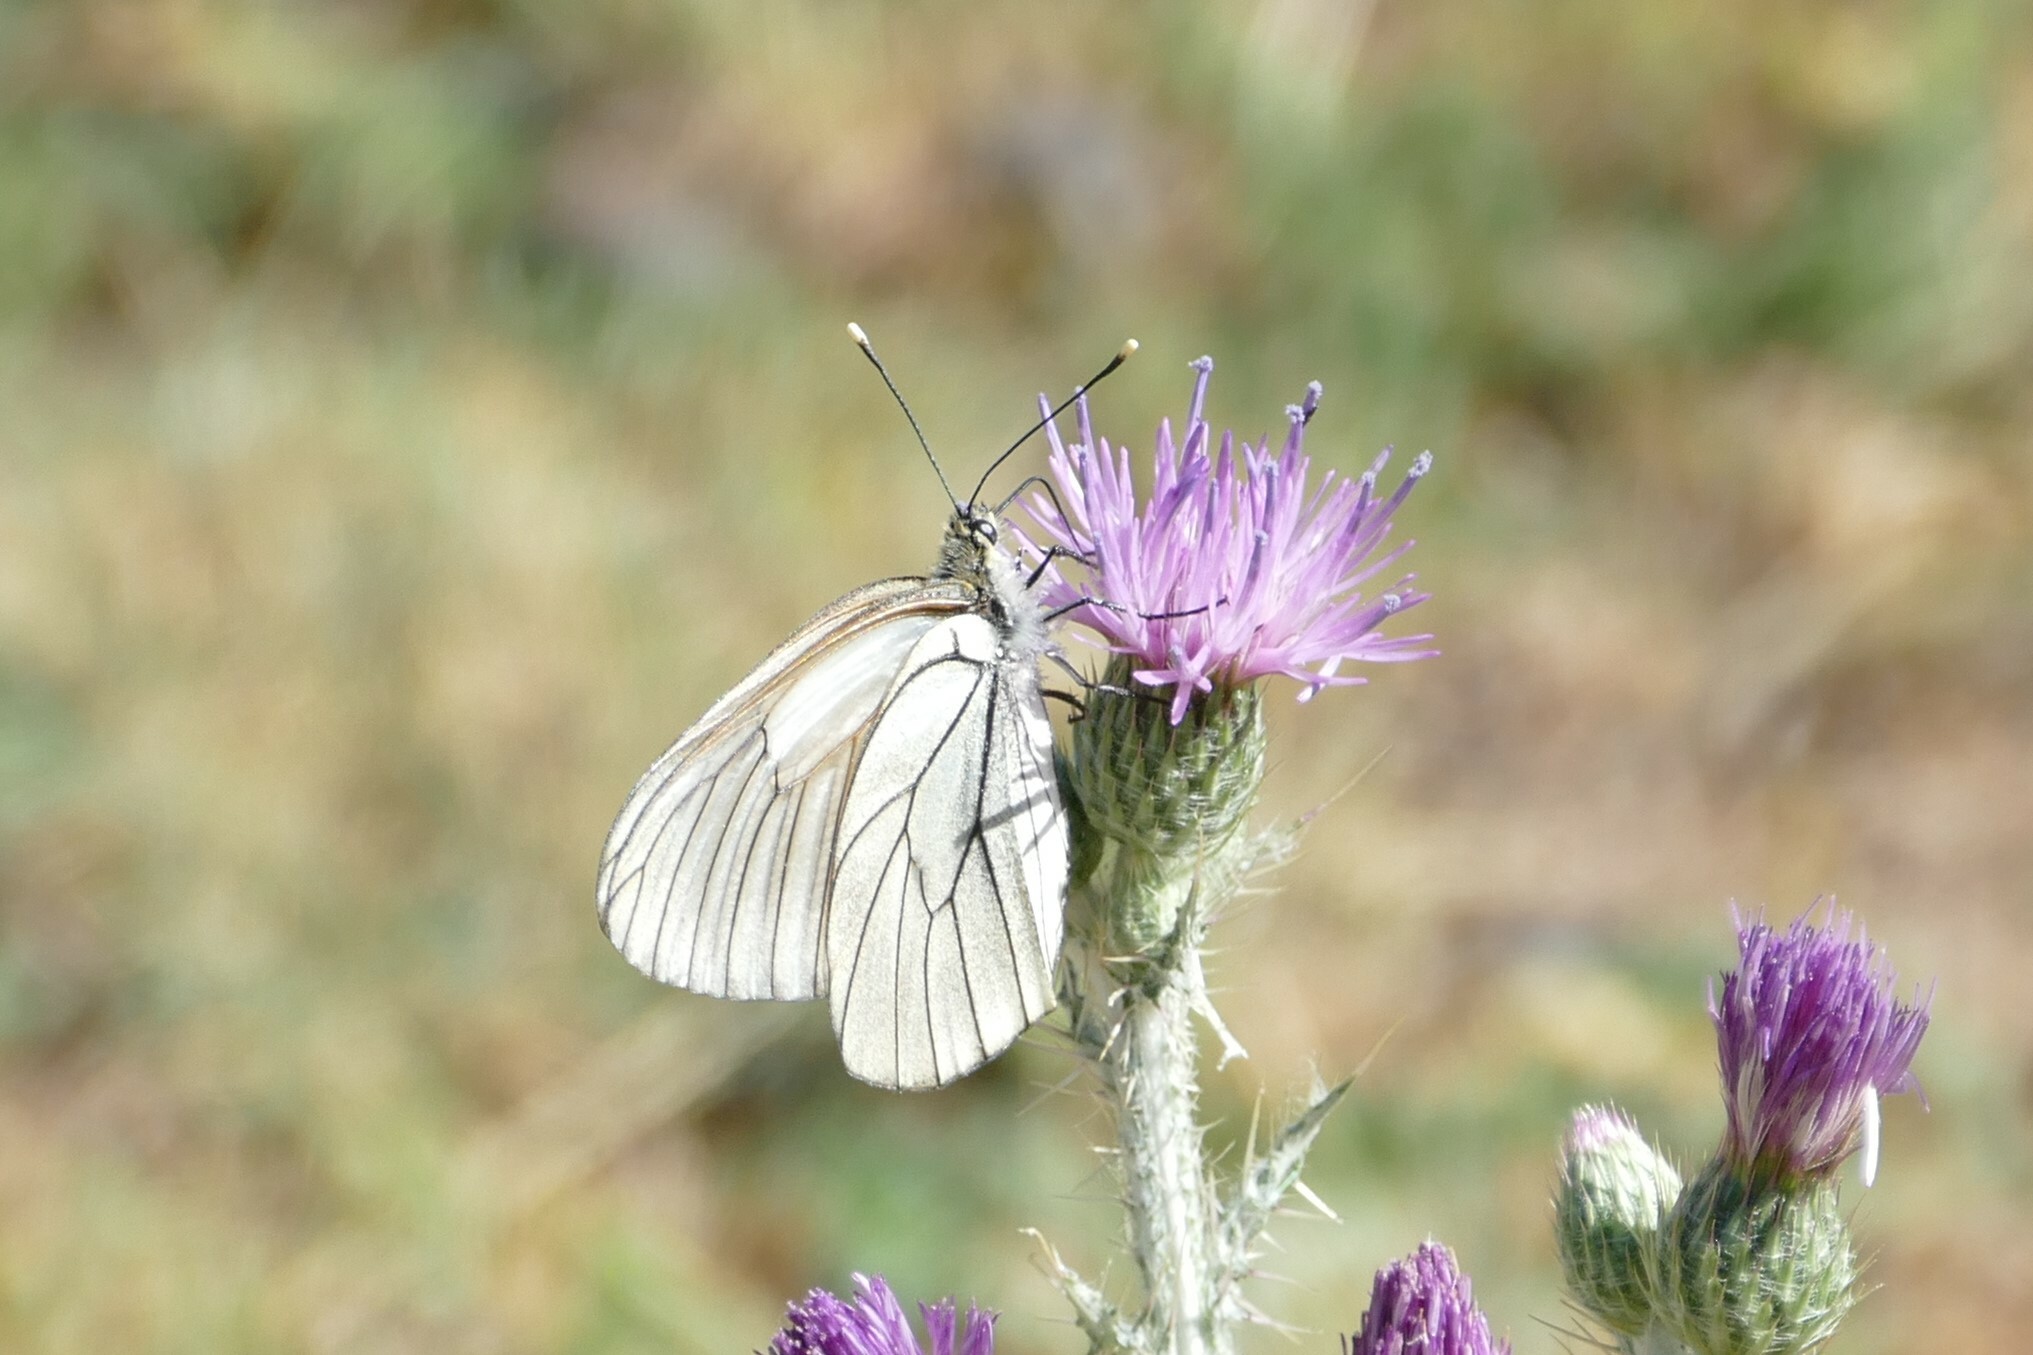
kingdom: Animalia
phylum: Arthropoda
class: Insecta
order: Lepidoptera
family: Pieridae
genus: Aporia
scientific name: Aporia crataegi
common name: Black-veined white
